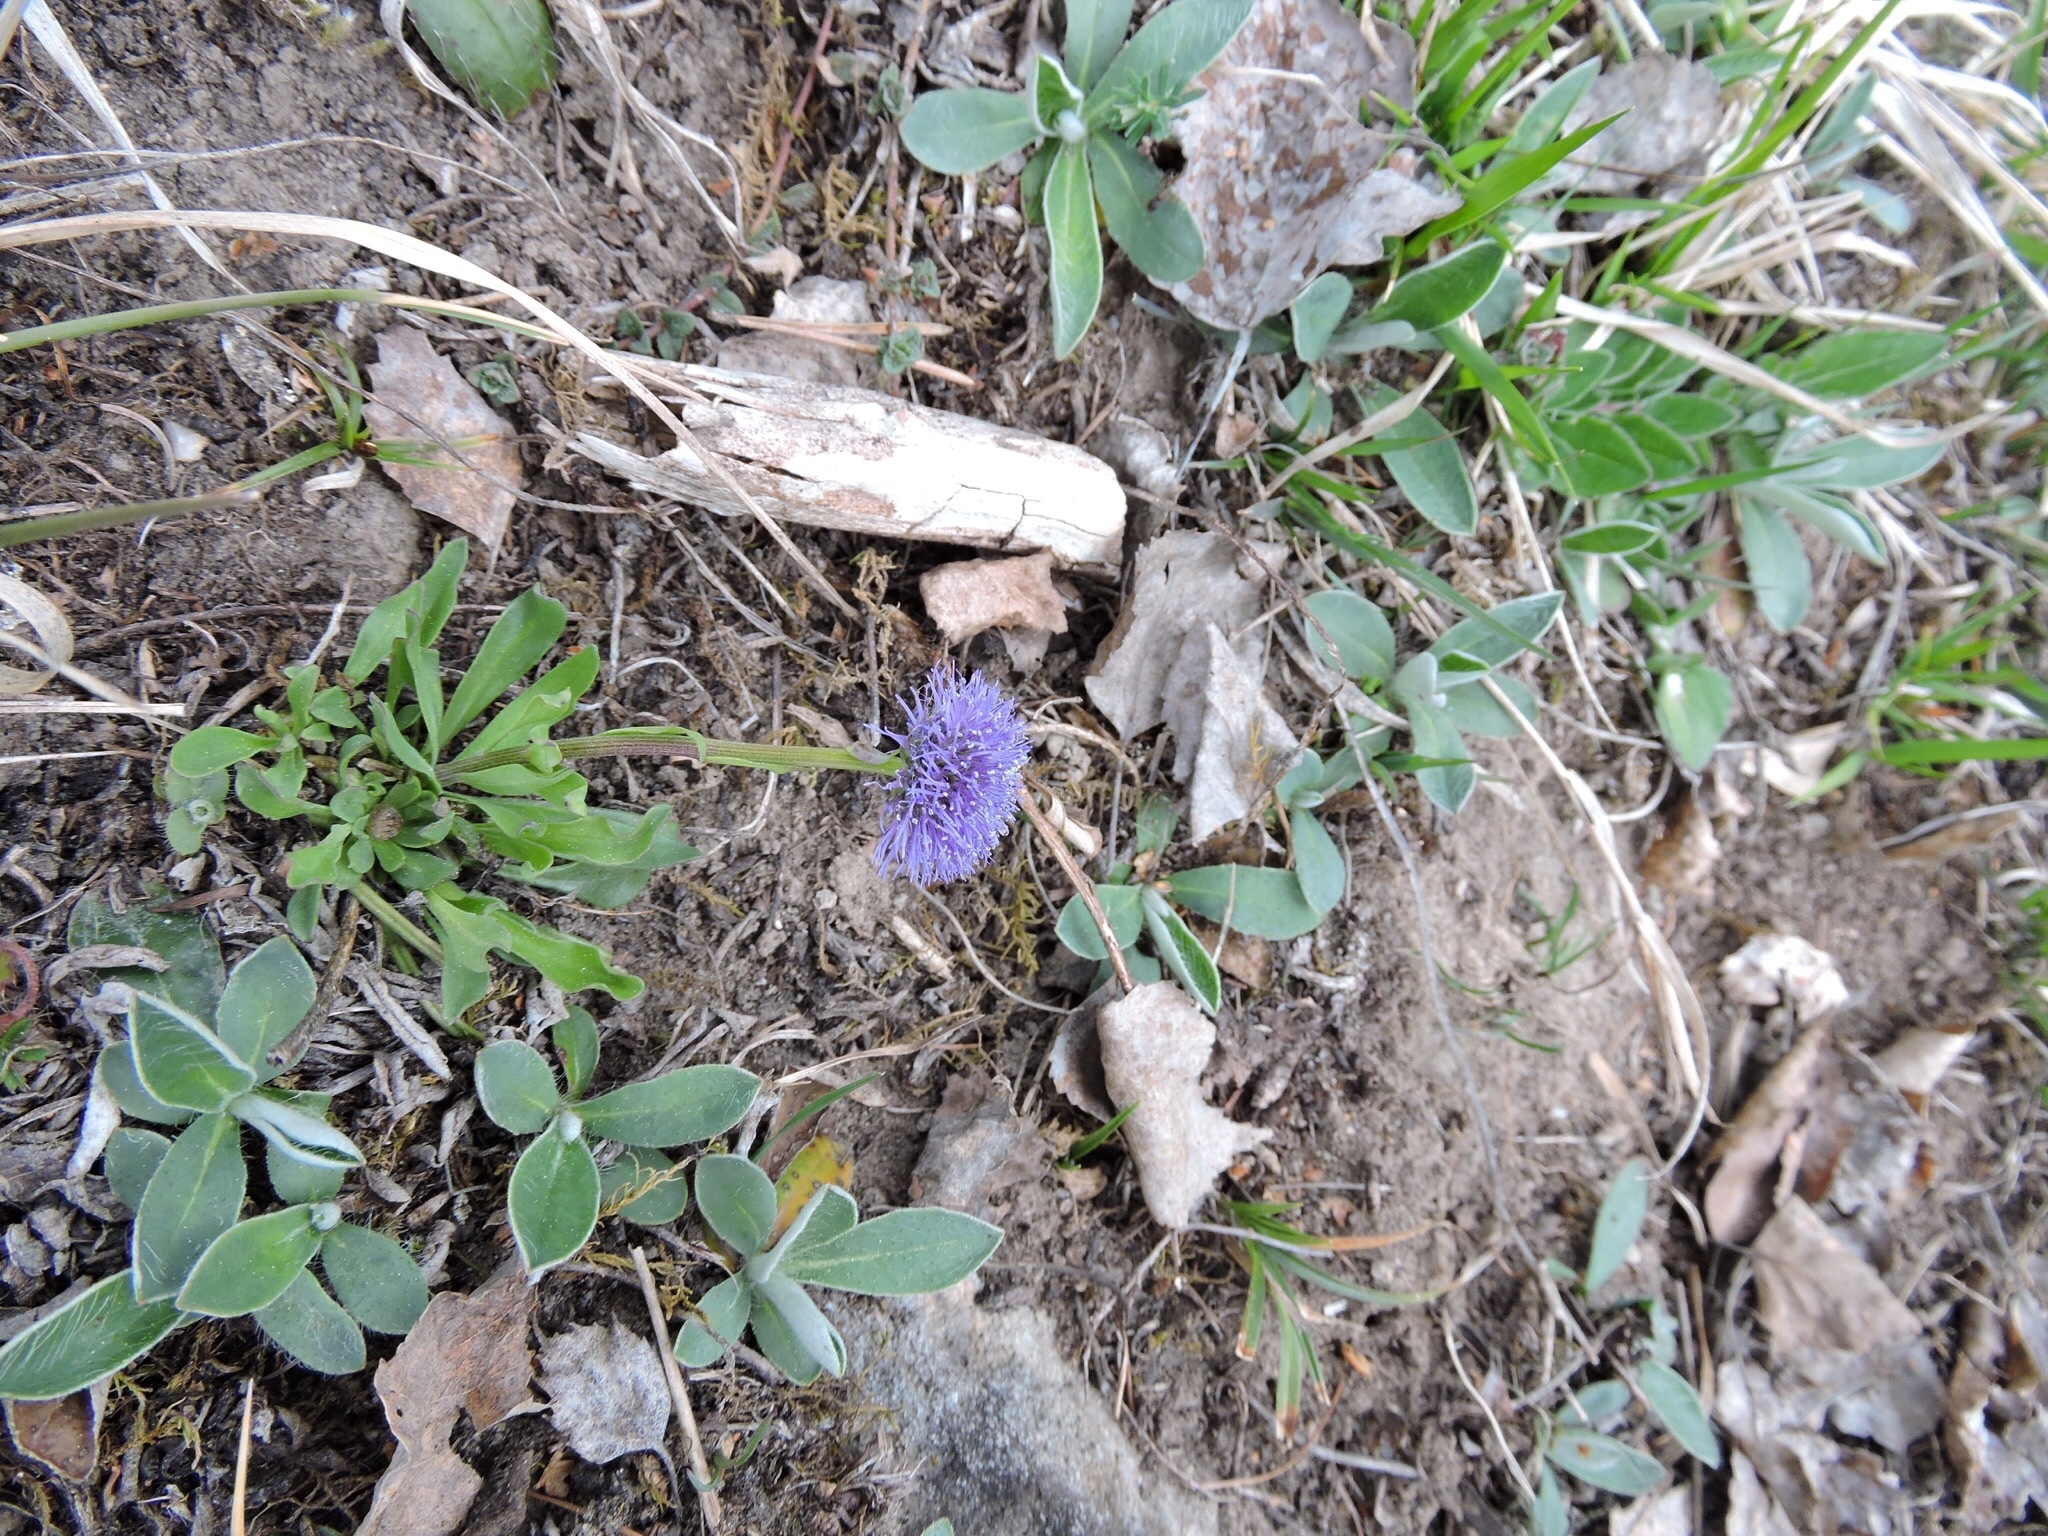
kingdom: Plantae
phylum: Tracheophyta
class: Magnoliopsida
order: Lamiales
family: Plantaginaceae
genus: Globularia
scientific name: Globularia bisnagarica
